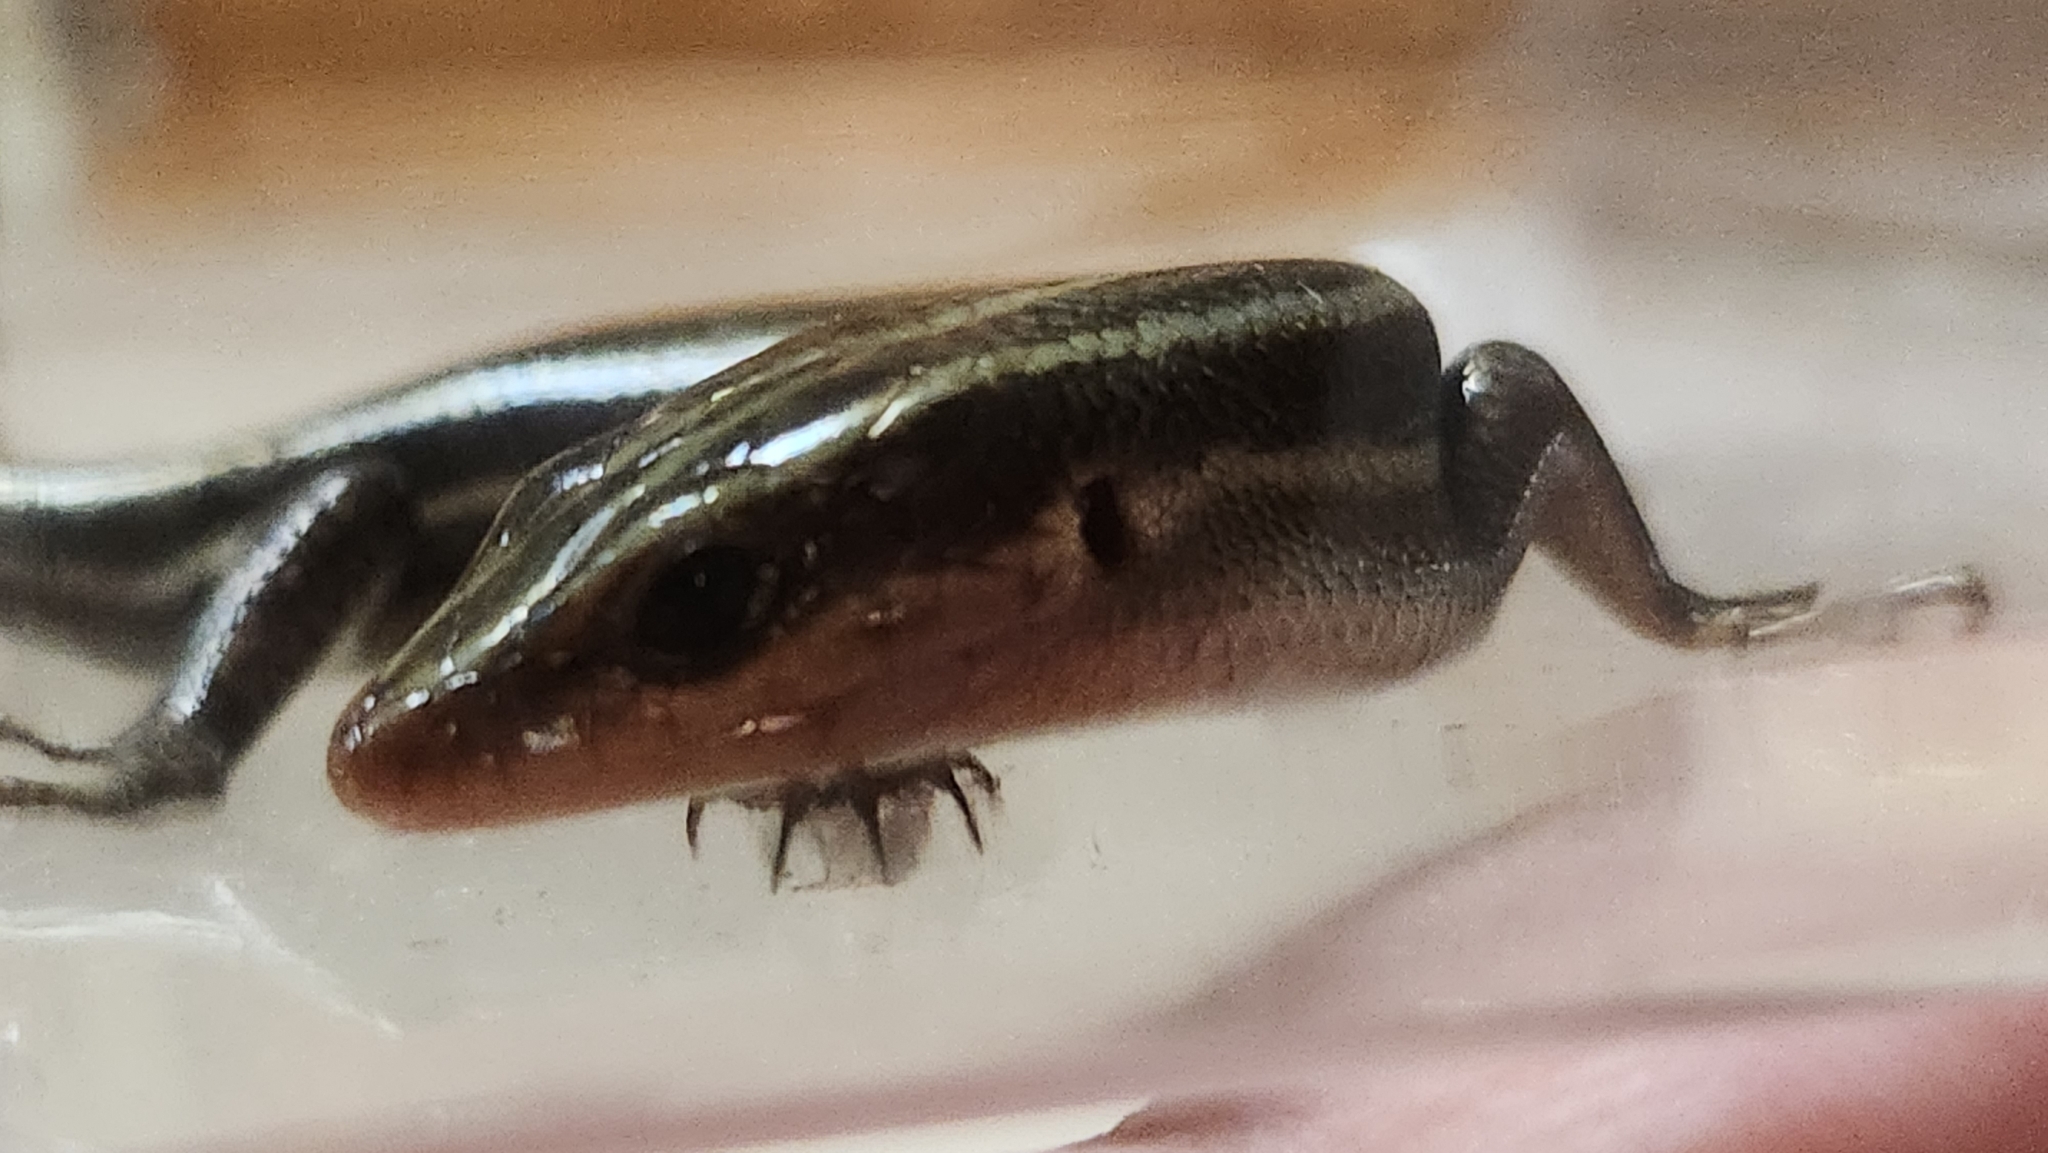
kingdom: Animalia
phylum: Chordata
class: Squamata
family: Scincidae
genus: Plestiodon
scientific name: Plestiodon fasciatus
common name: Five-lined skink
